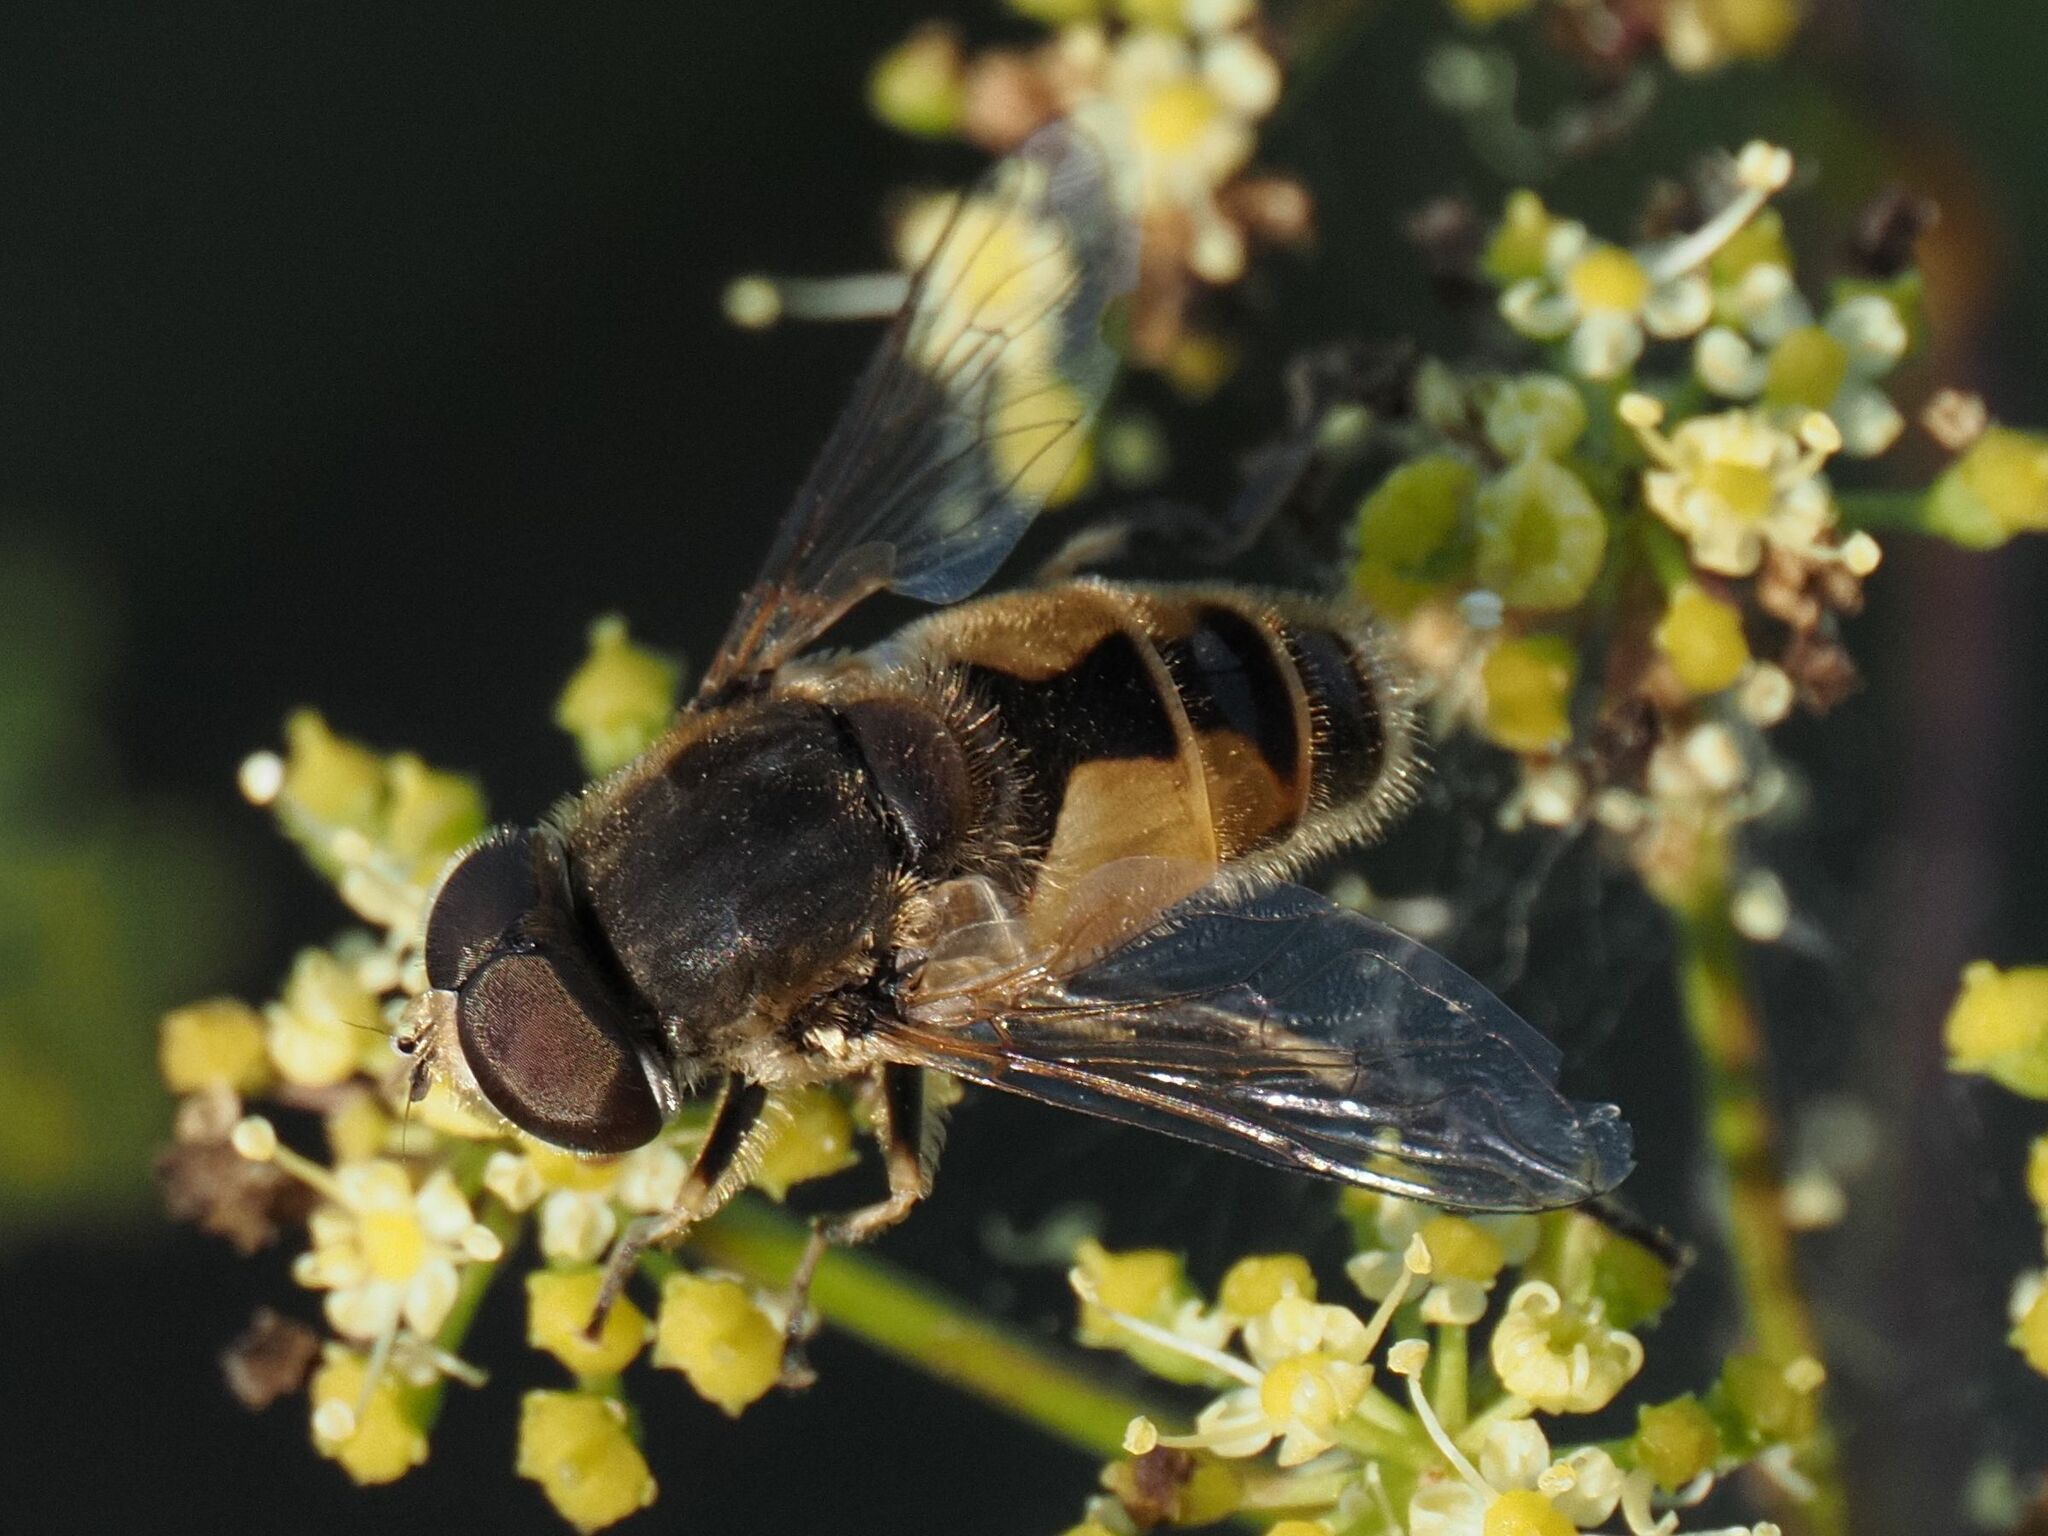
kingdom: Animalia
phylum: Arthropoda
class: Insecta
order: Diptera
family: Syrphidae
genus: Eristalis
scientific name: Eristalis arbustorum
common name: Hover fly
